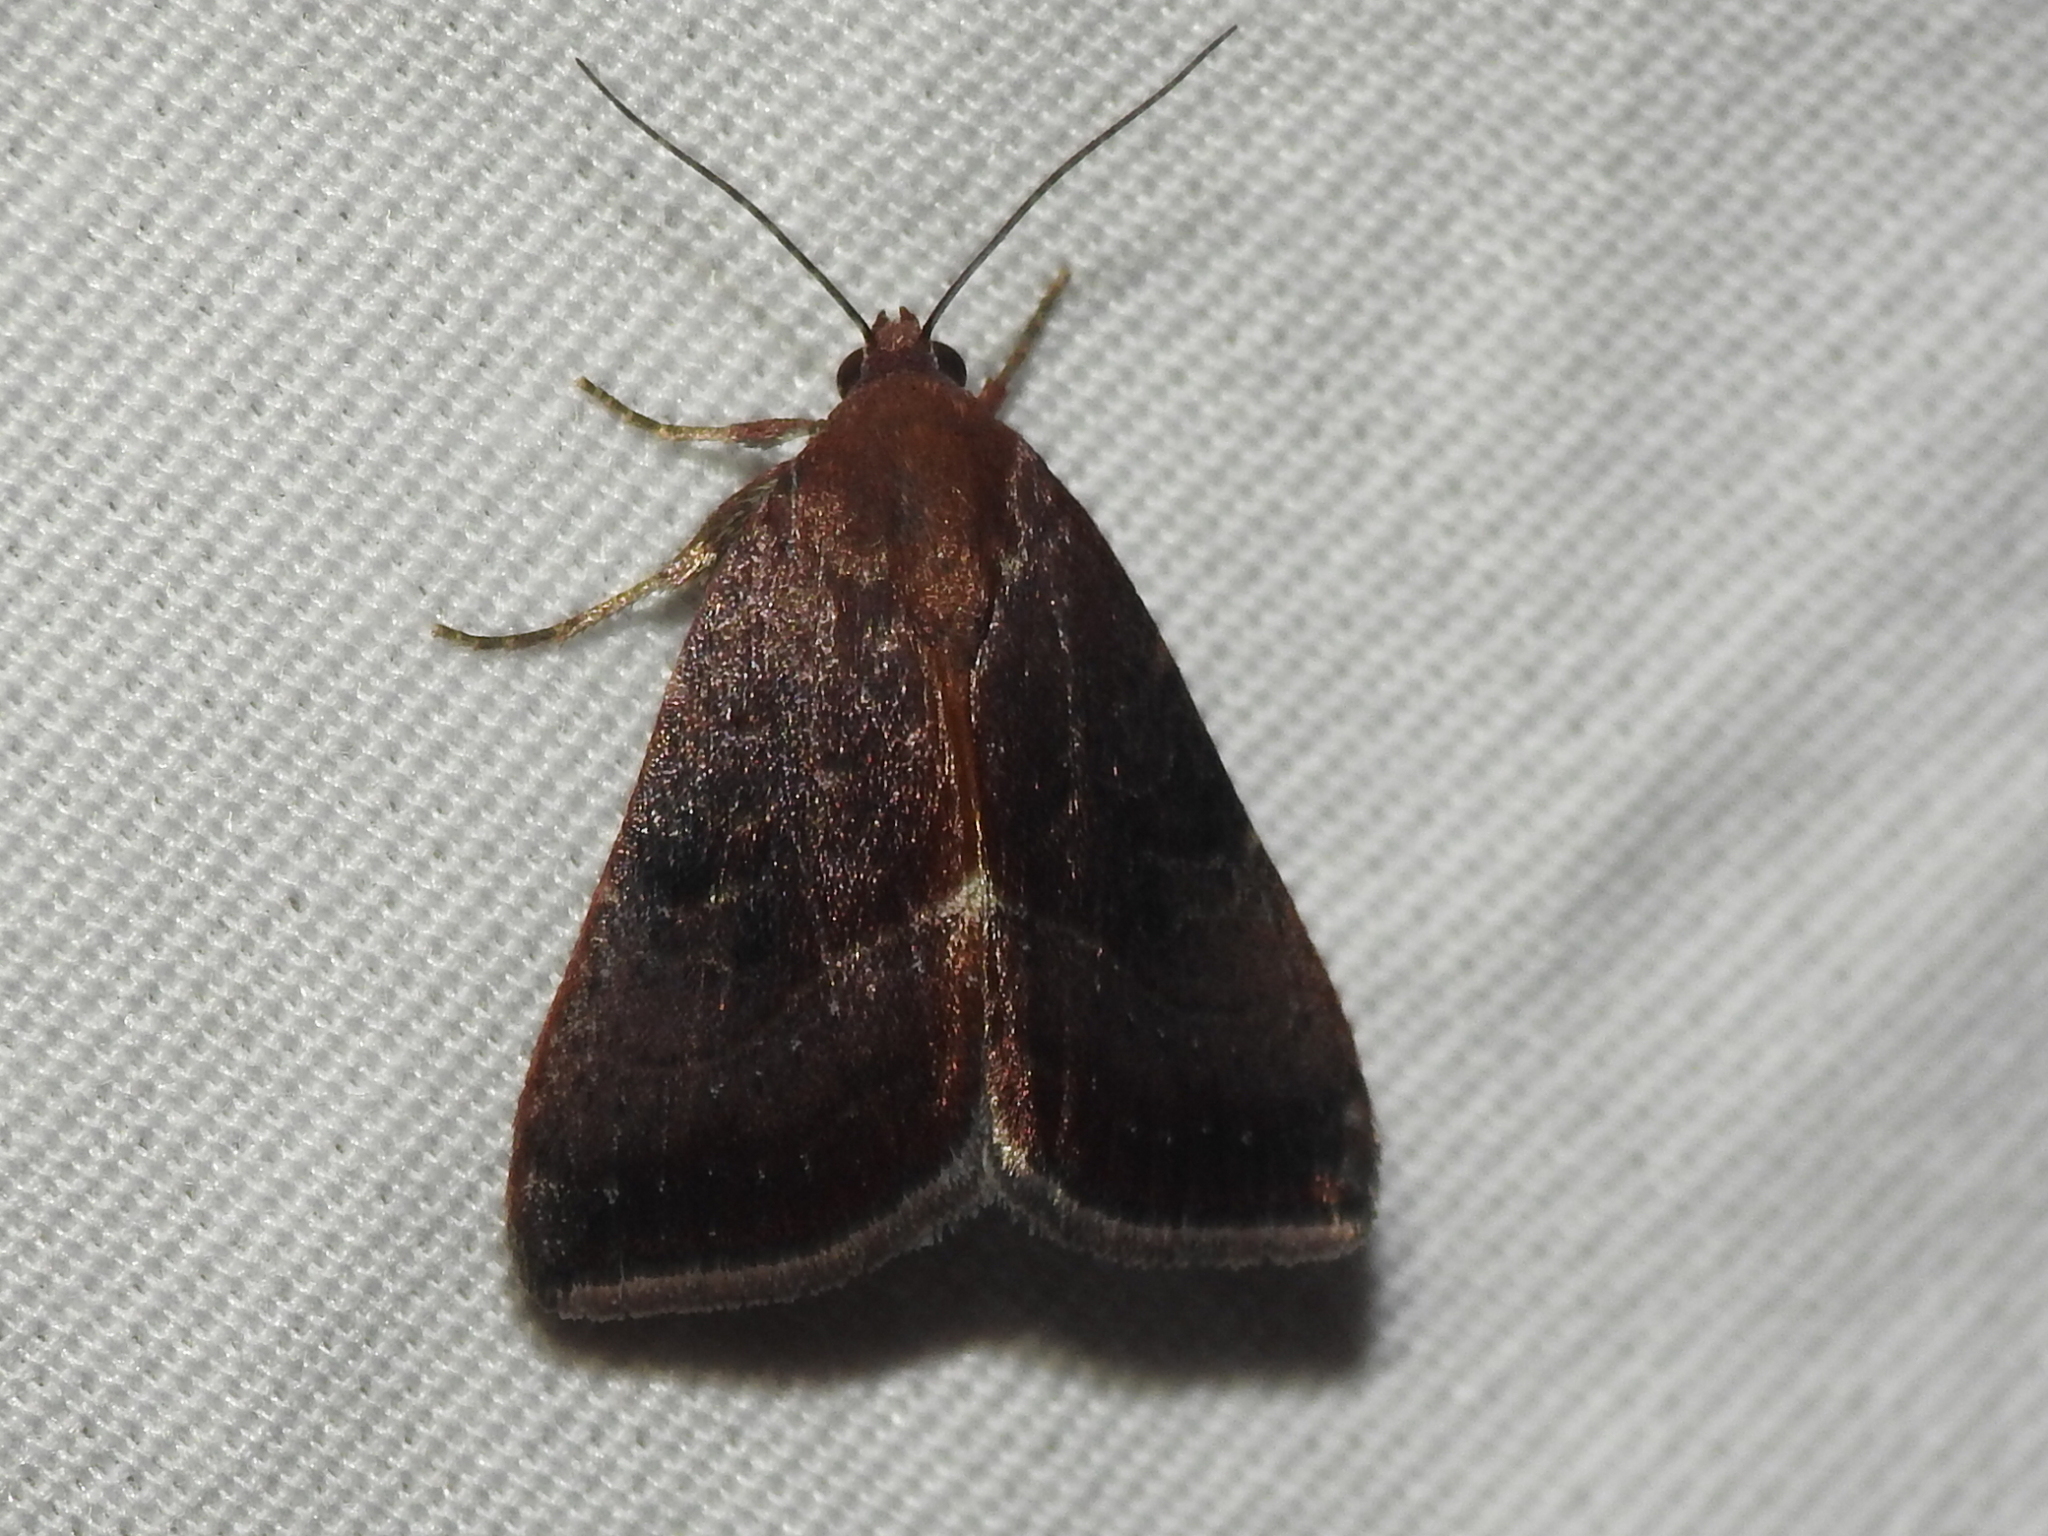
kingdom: Animalia
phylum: Arthropoda
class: Insecta
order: Lepidoptera
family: Noctuidae
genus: Galgula
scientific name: Galgula partita
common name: Wedgeling
